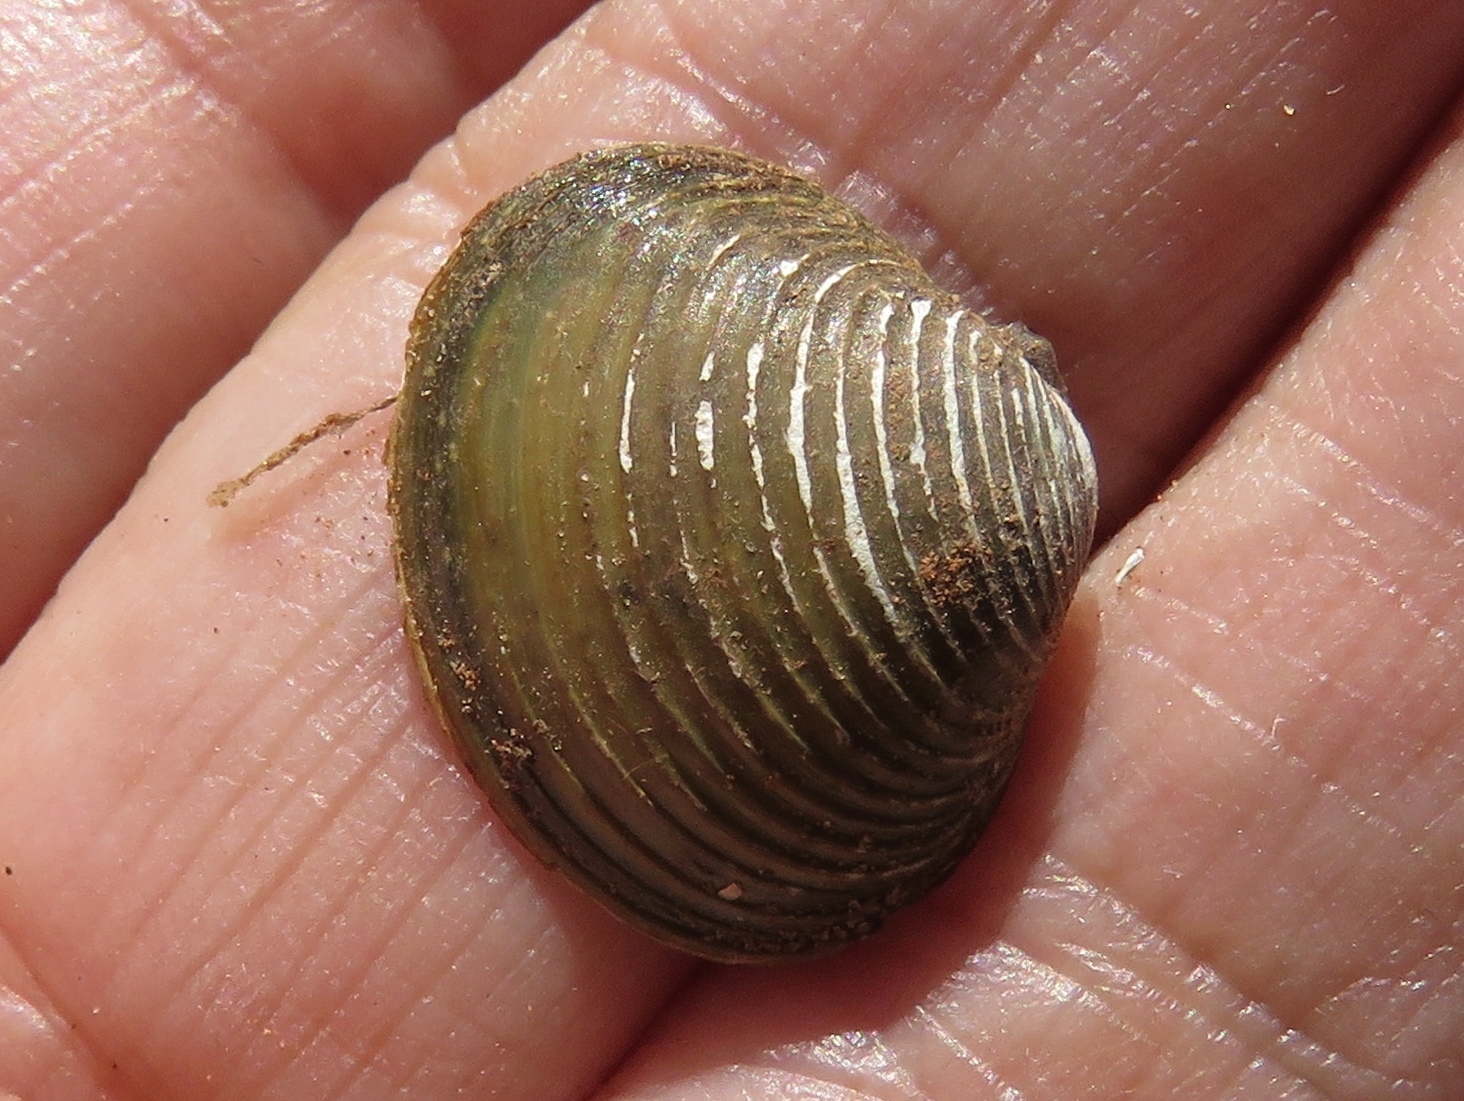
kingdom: Animalia
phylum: Mollusca
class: Bivalvia
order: Venerida
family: Cyrenidae
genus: Corbicula
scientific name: Corbicula fluminea
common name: Asian clam
